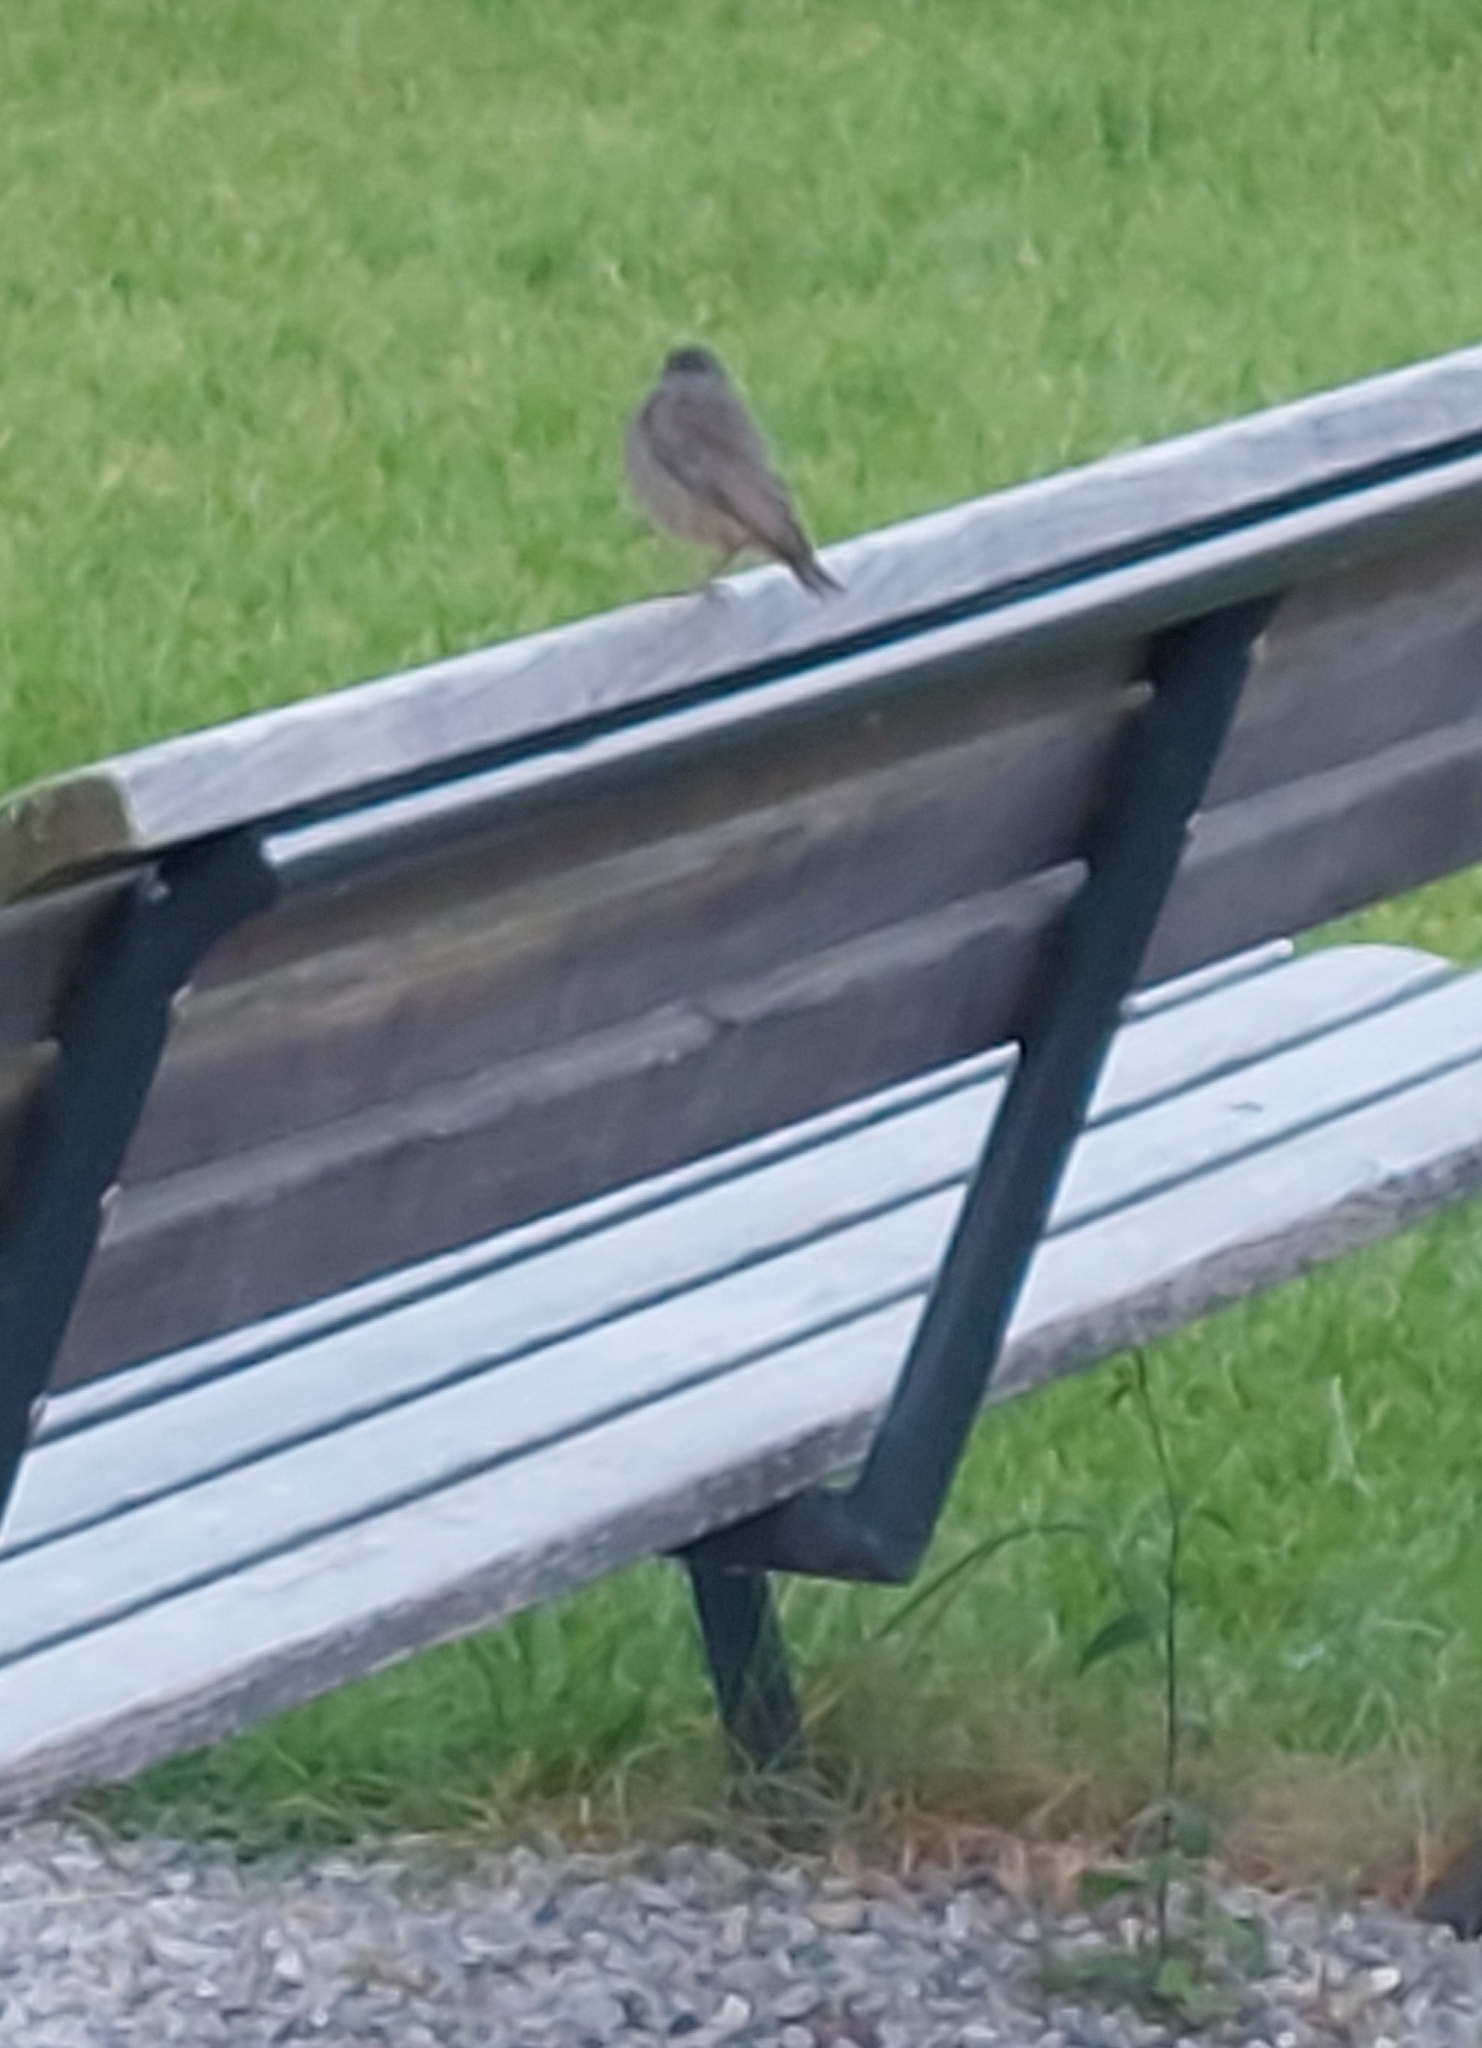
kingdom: Animalia
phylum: Chordata
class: Aves
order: Passeriformes
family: Muscicapidae
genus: Phoenicurus
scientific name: Phoenicurus ochruros
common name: Black redstart
